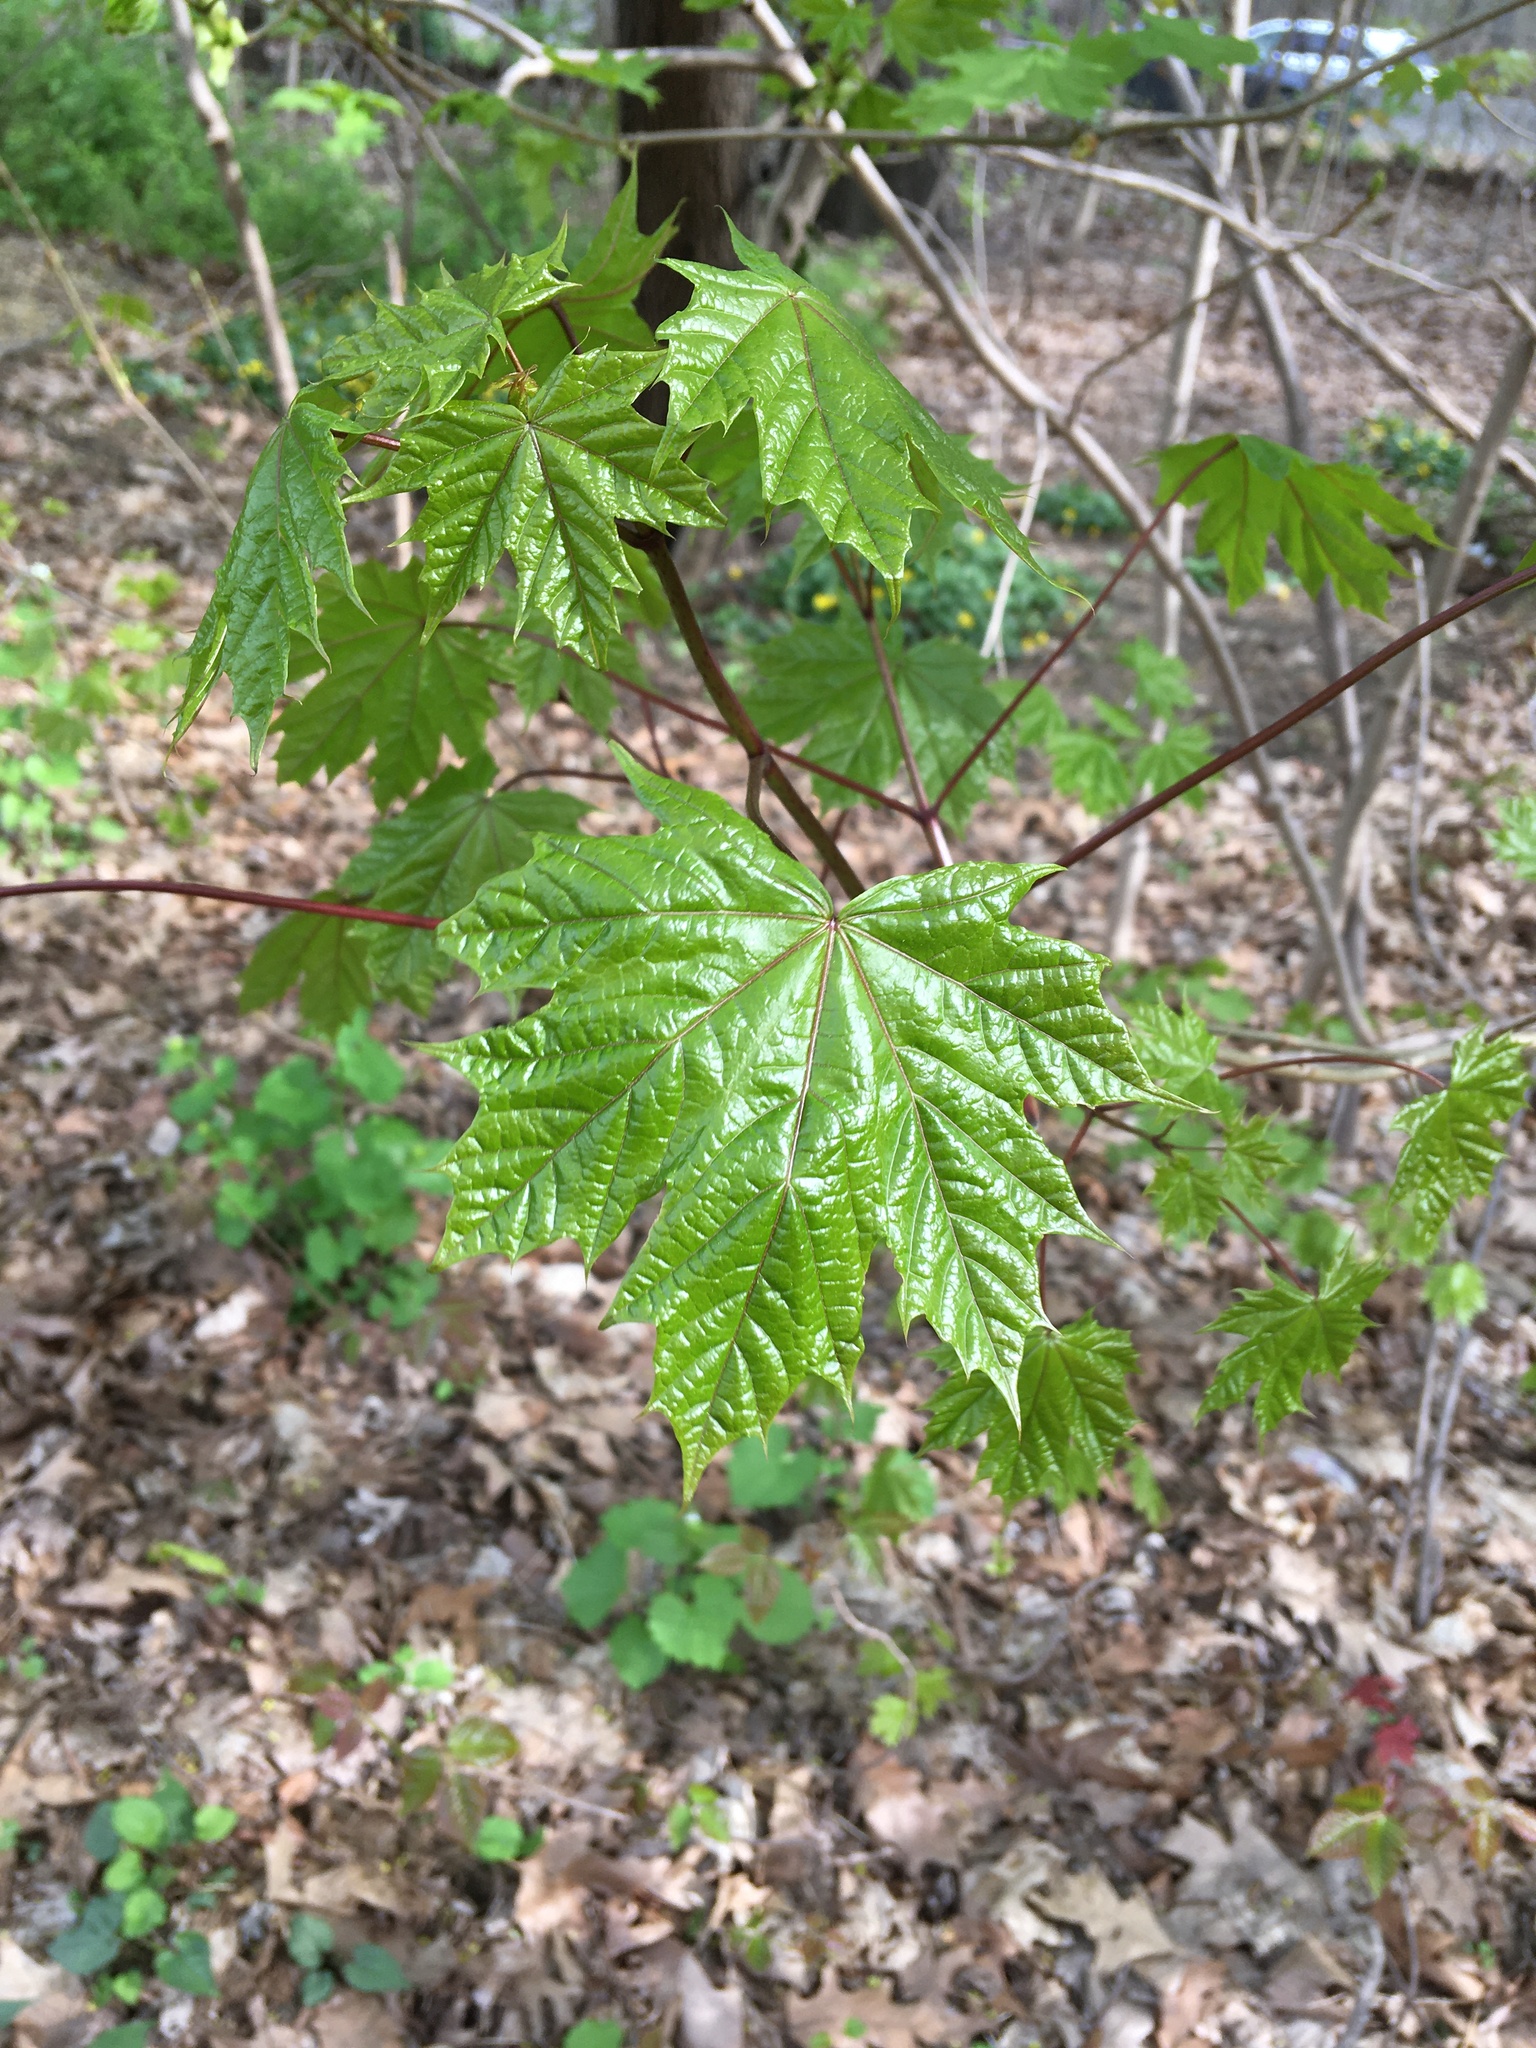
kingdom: Plantae
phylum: Tracheophyta
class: Magnoliopsida
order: Sapindales
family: Sapindaceae
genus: Acer
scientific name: Acer platanoides
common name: Norway maple
